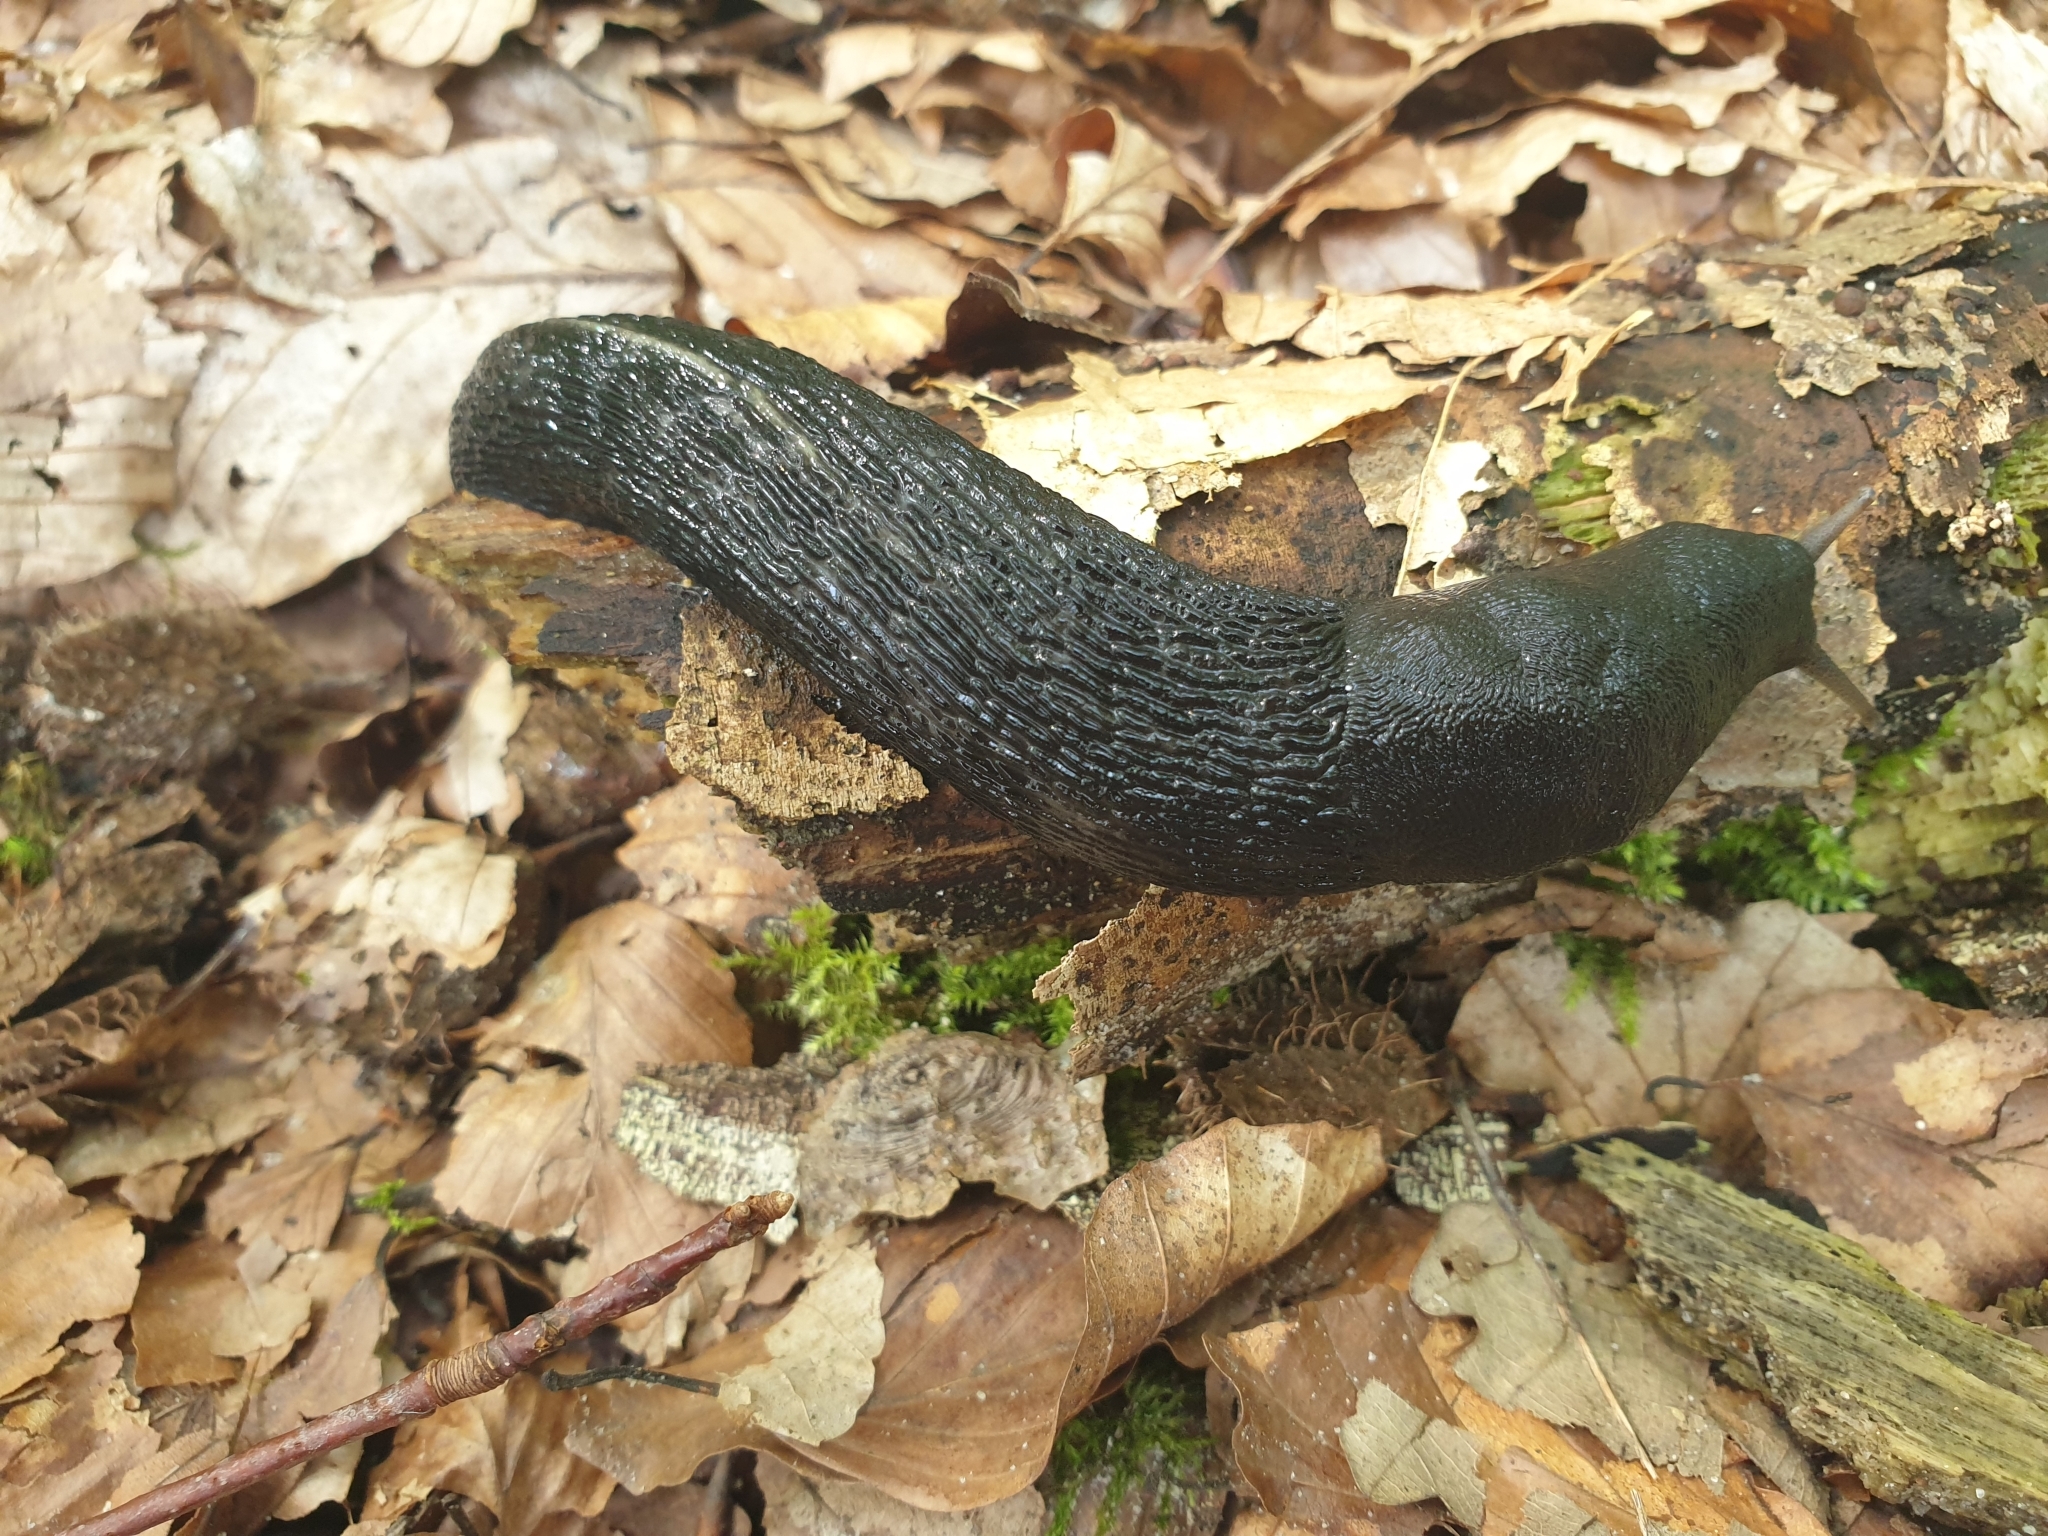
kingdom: Animalia
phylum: Mollusca
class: Gastropoda
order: Stylommatophora
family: Limacidae
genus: Limax
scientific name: Limax cinereoniger
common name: Ash-black slug
